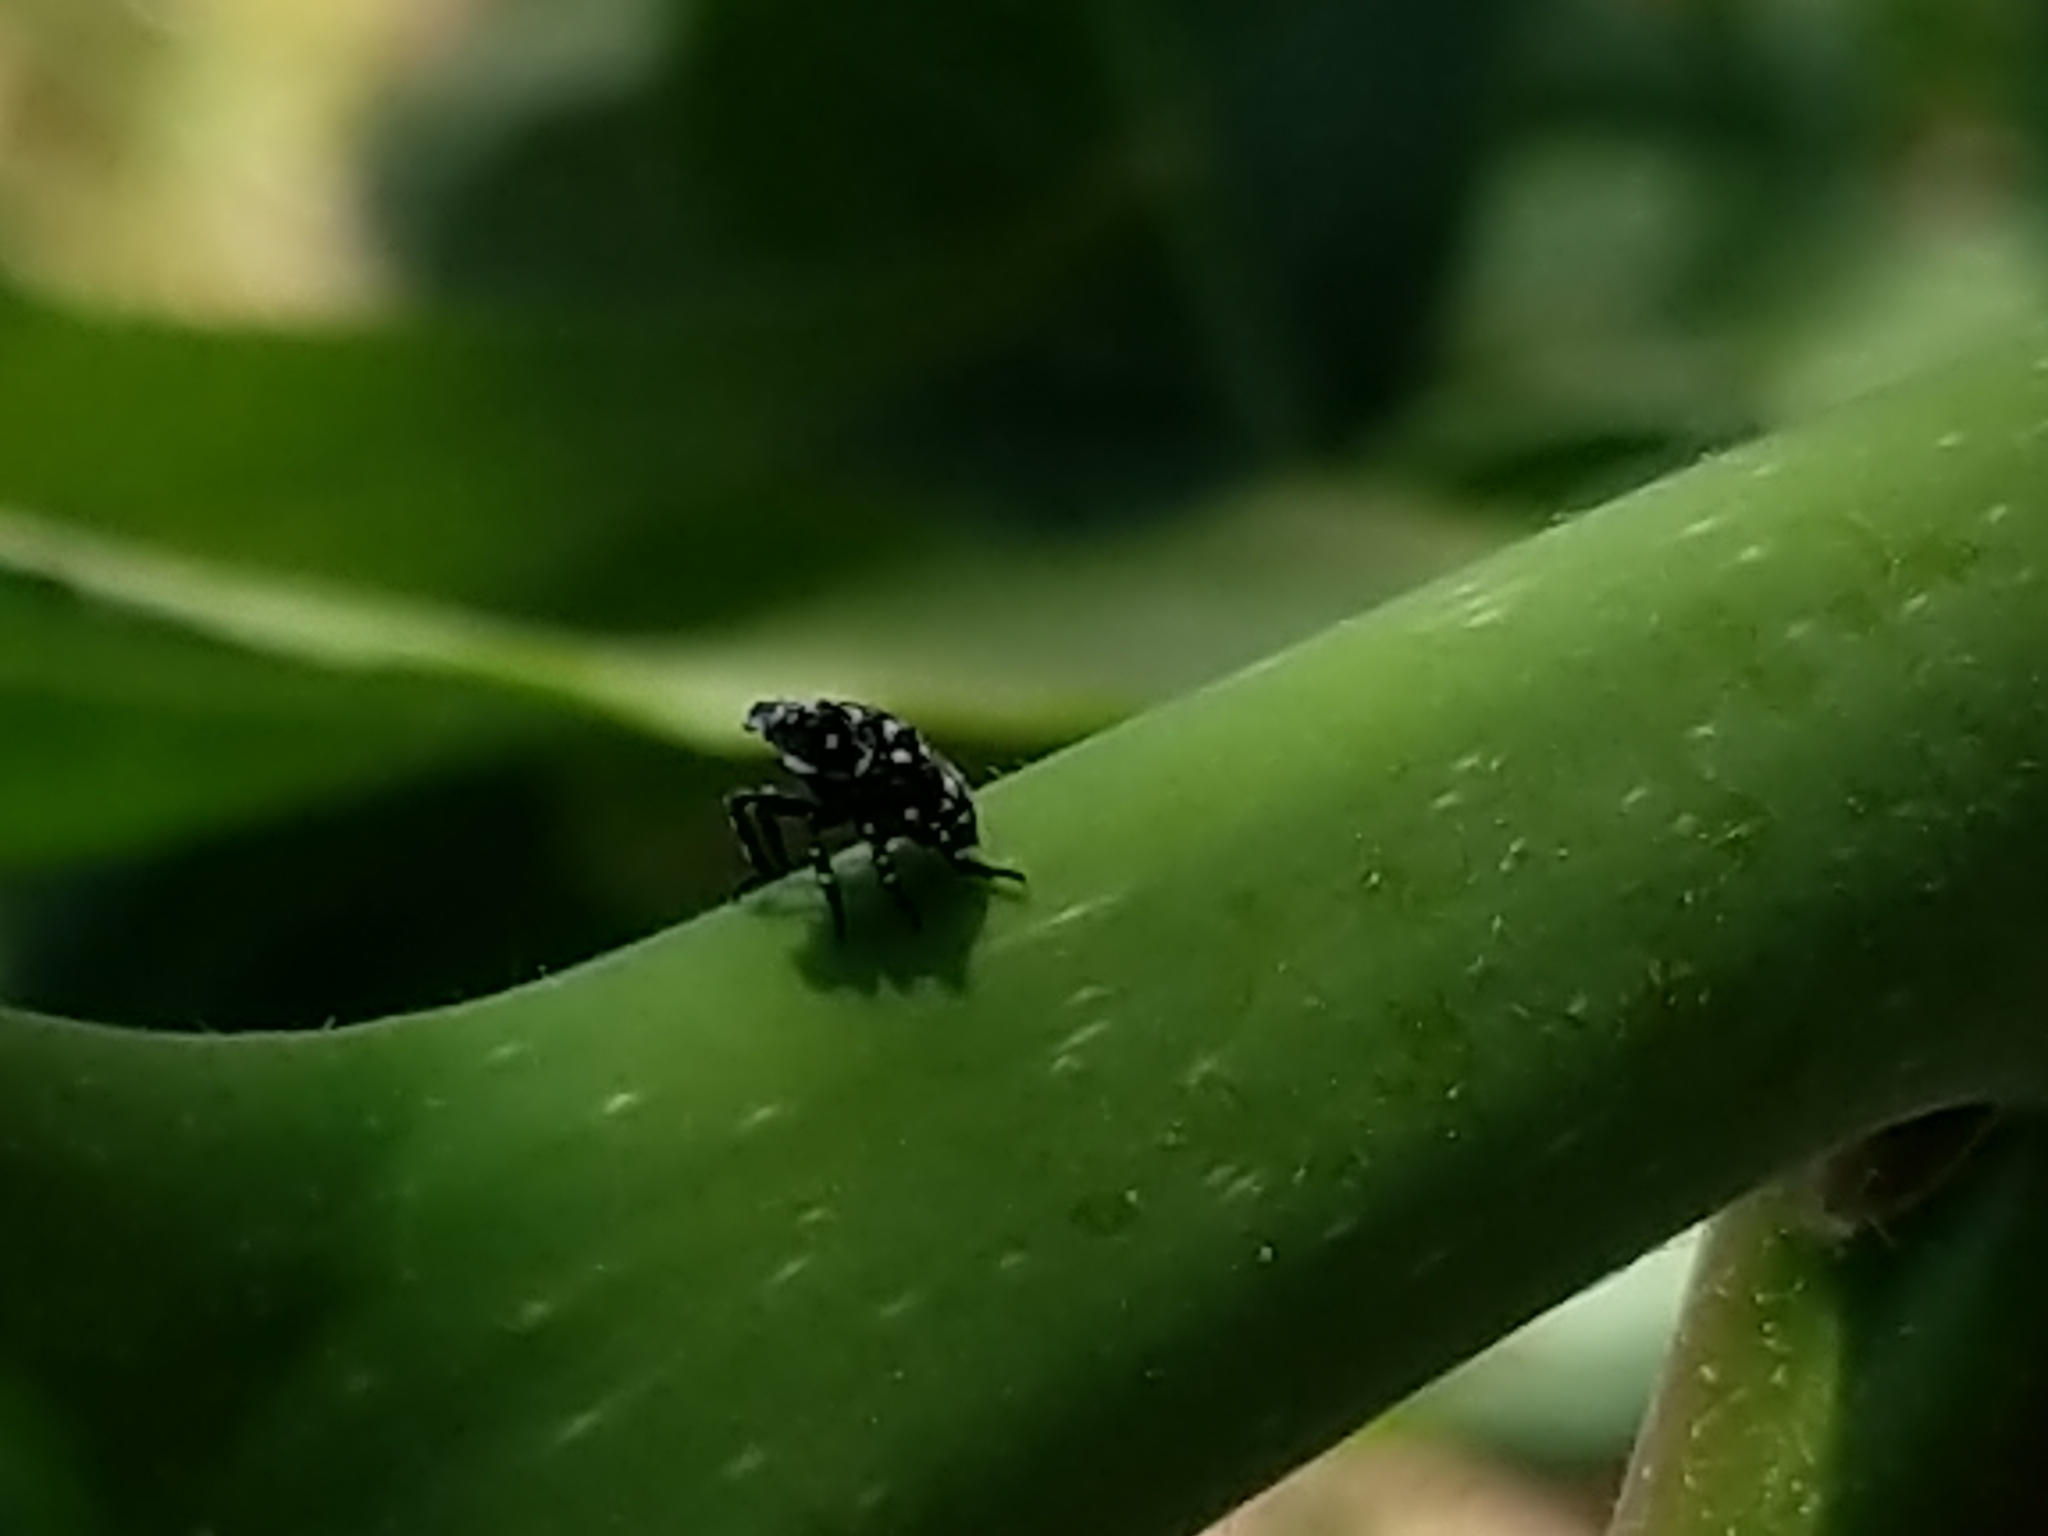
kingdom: Animalia
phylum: Arthropoda
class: Insecta
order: Hemiptera
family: Fulgoridae
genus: Lycorma
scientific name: Lycorma delicatula
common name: Spotted lanternfly
